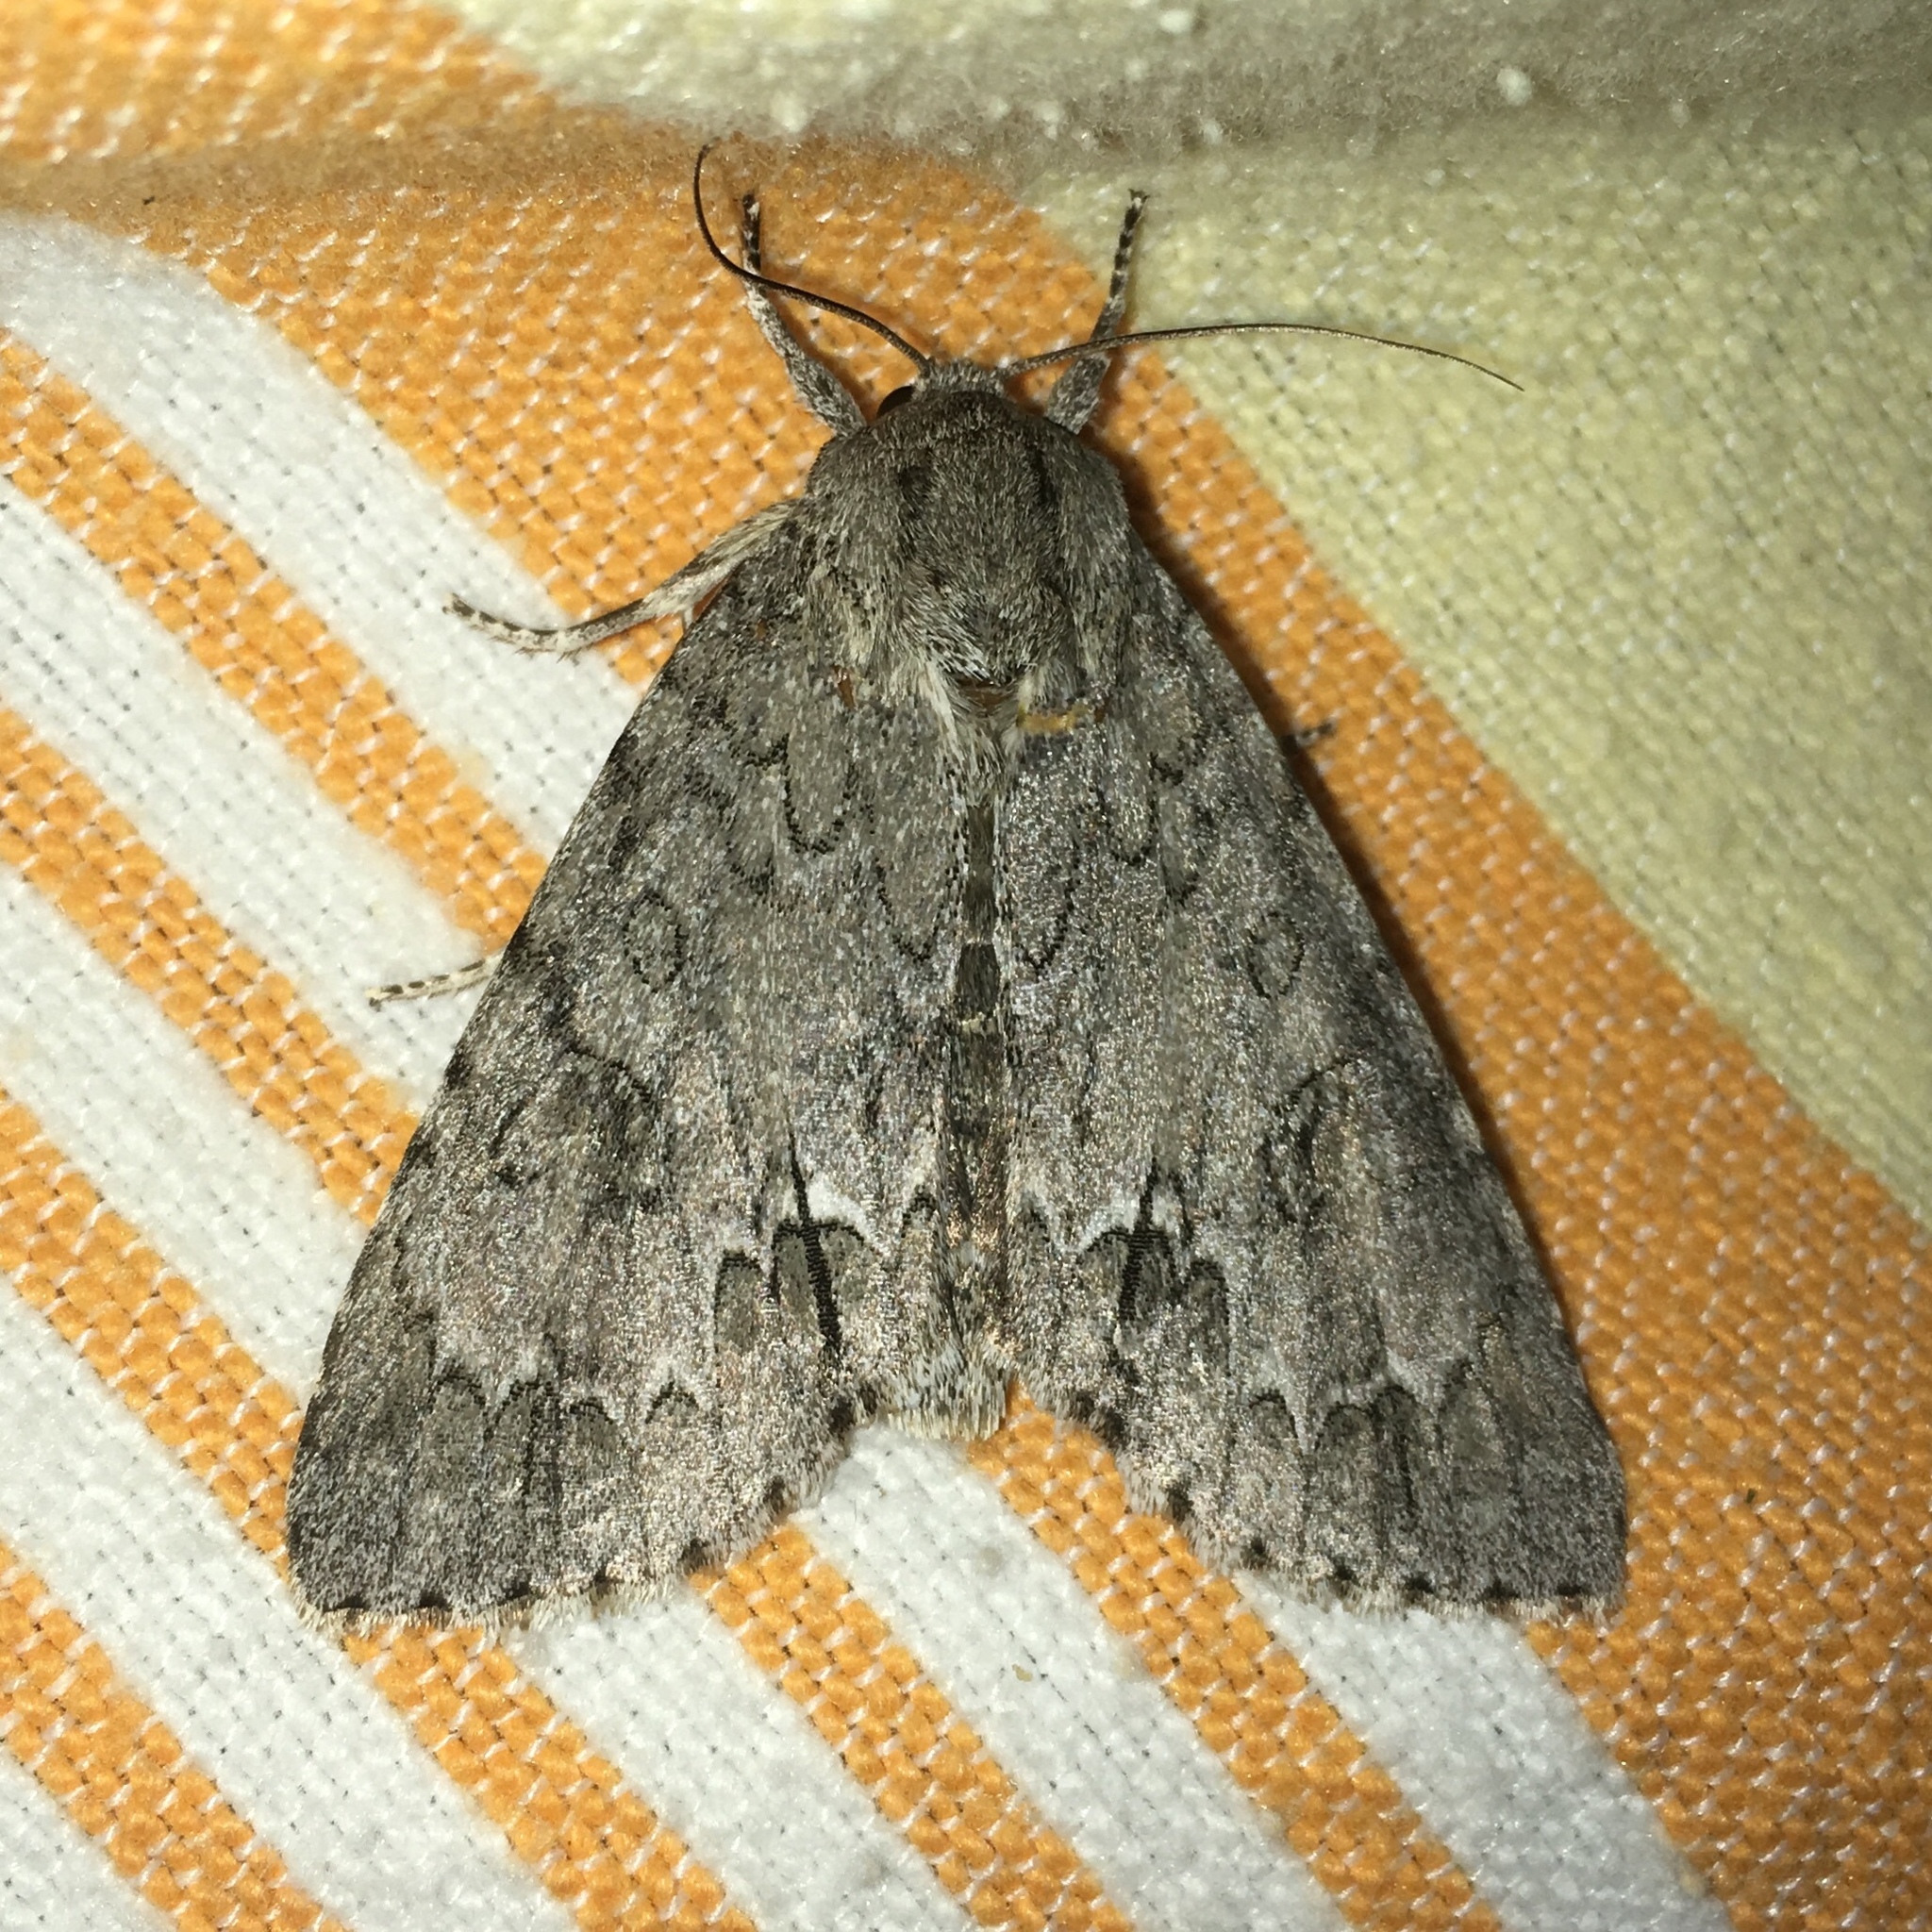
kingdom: Animalia
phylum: Arthropoda
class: Insecta
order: Lepidoptera
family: Noctuidae
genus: Acronicta
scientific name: Acronicta americana
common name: American dagger
